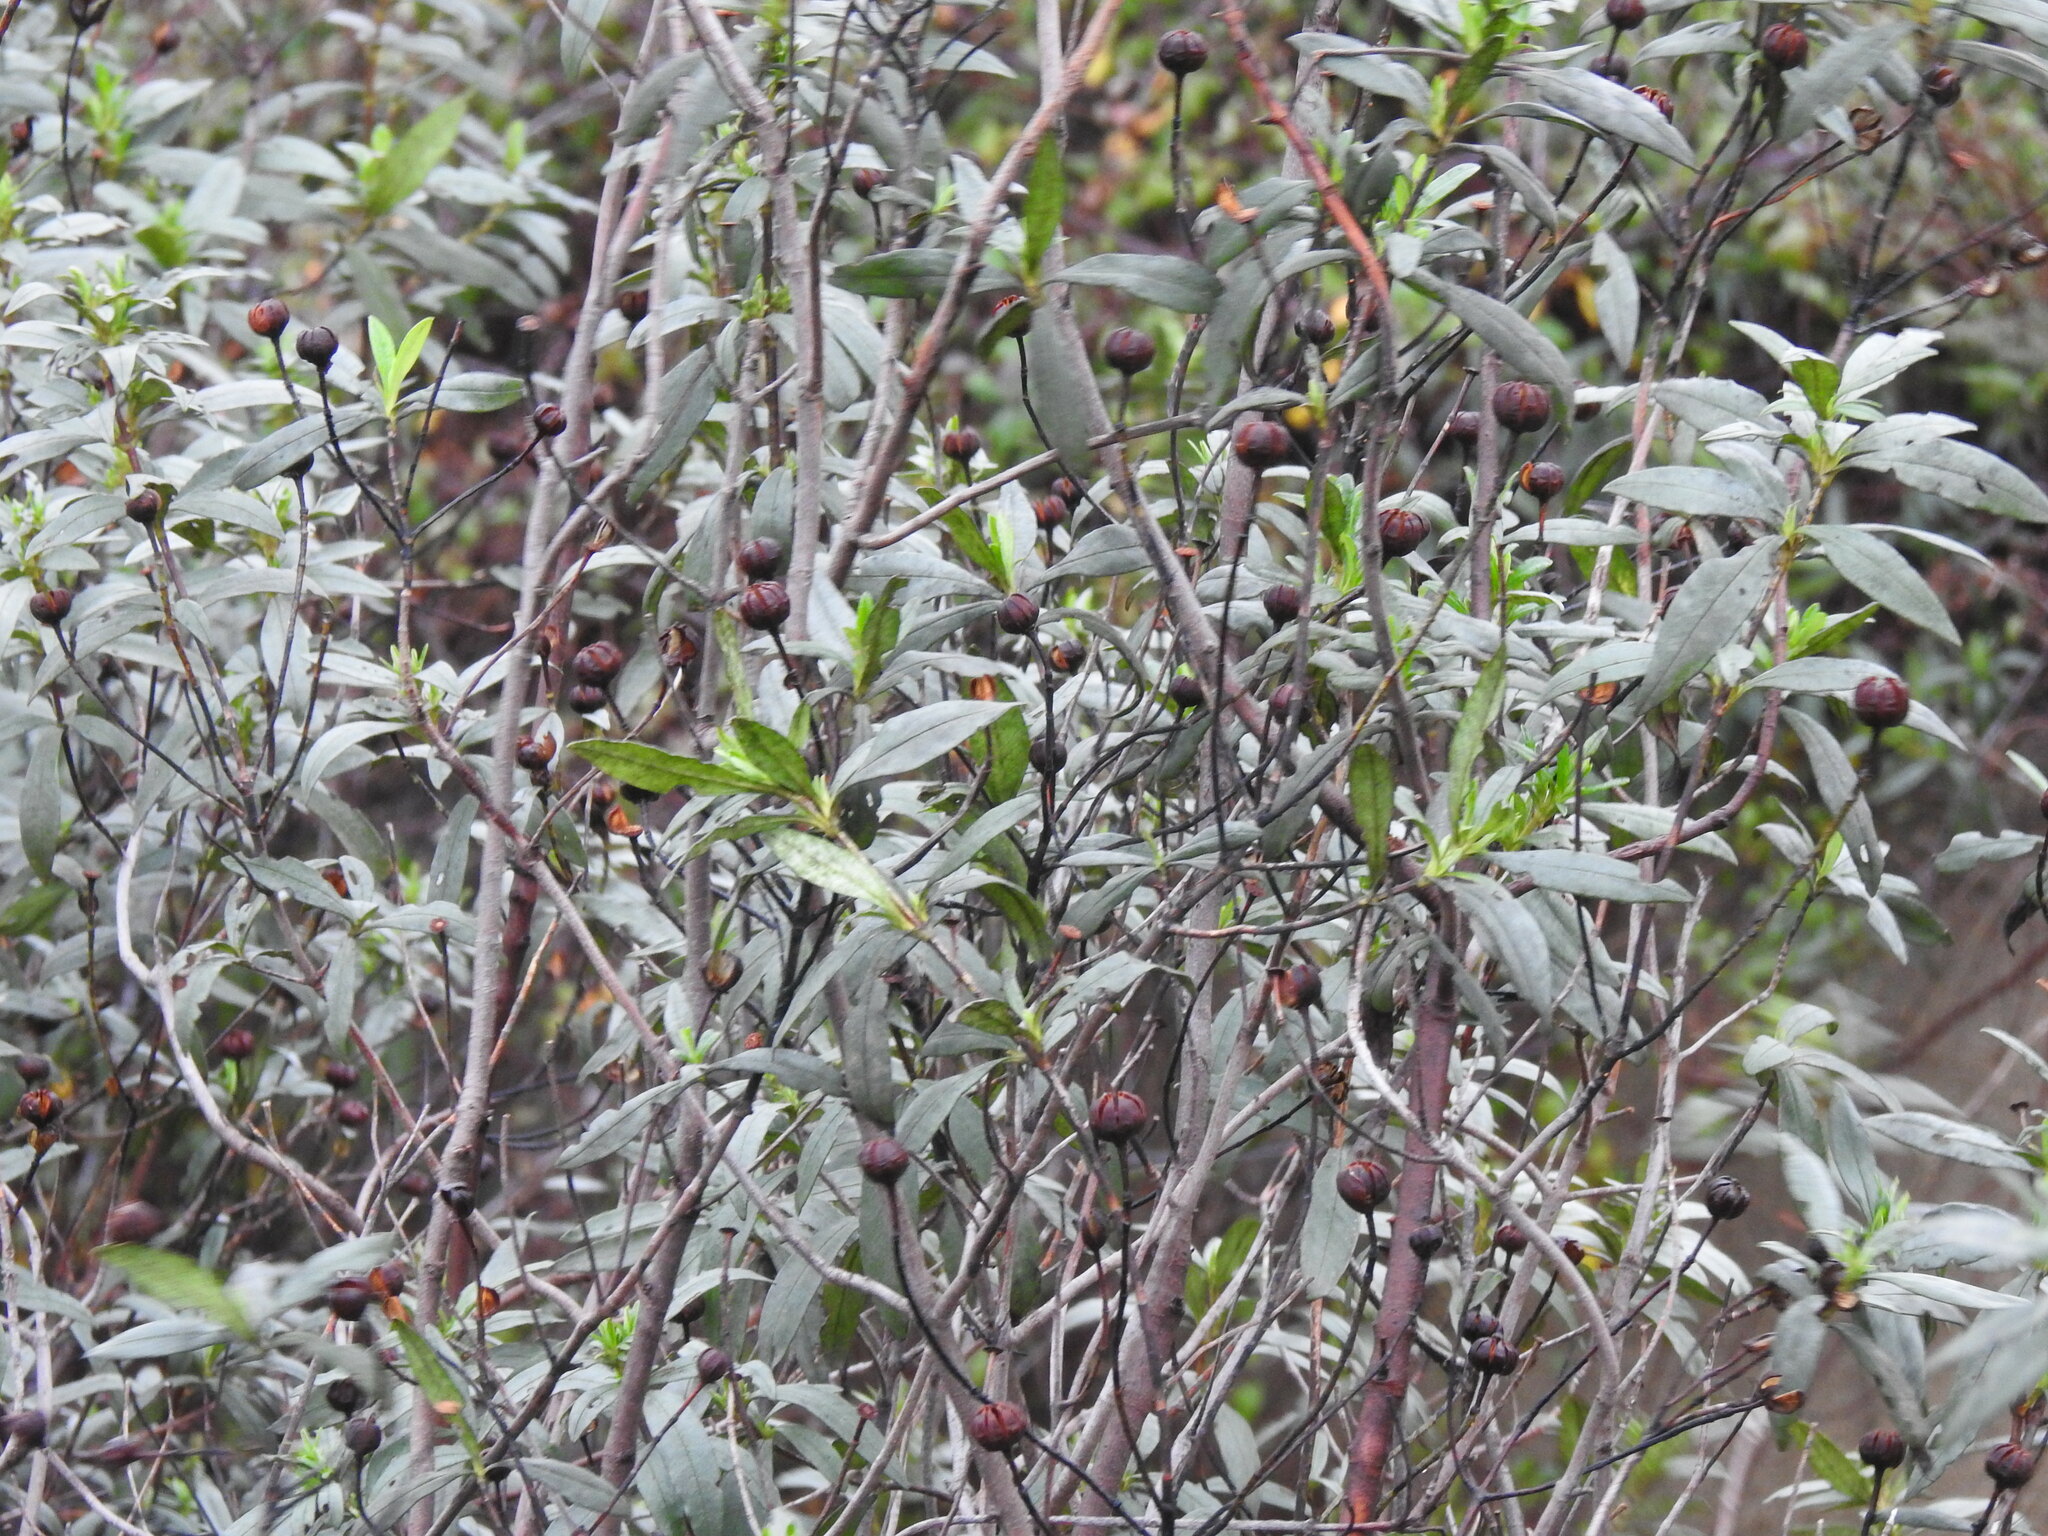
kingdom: Plantae
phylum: Tracheophyta
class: Magnoliopsida
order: Malvales
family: Cistaceae
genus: Cistus
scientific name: Cistus ladanifer
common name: Common gum cistus
